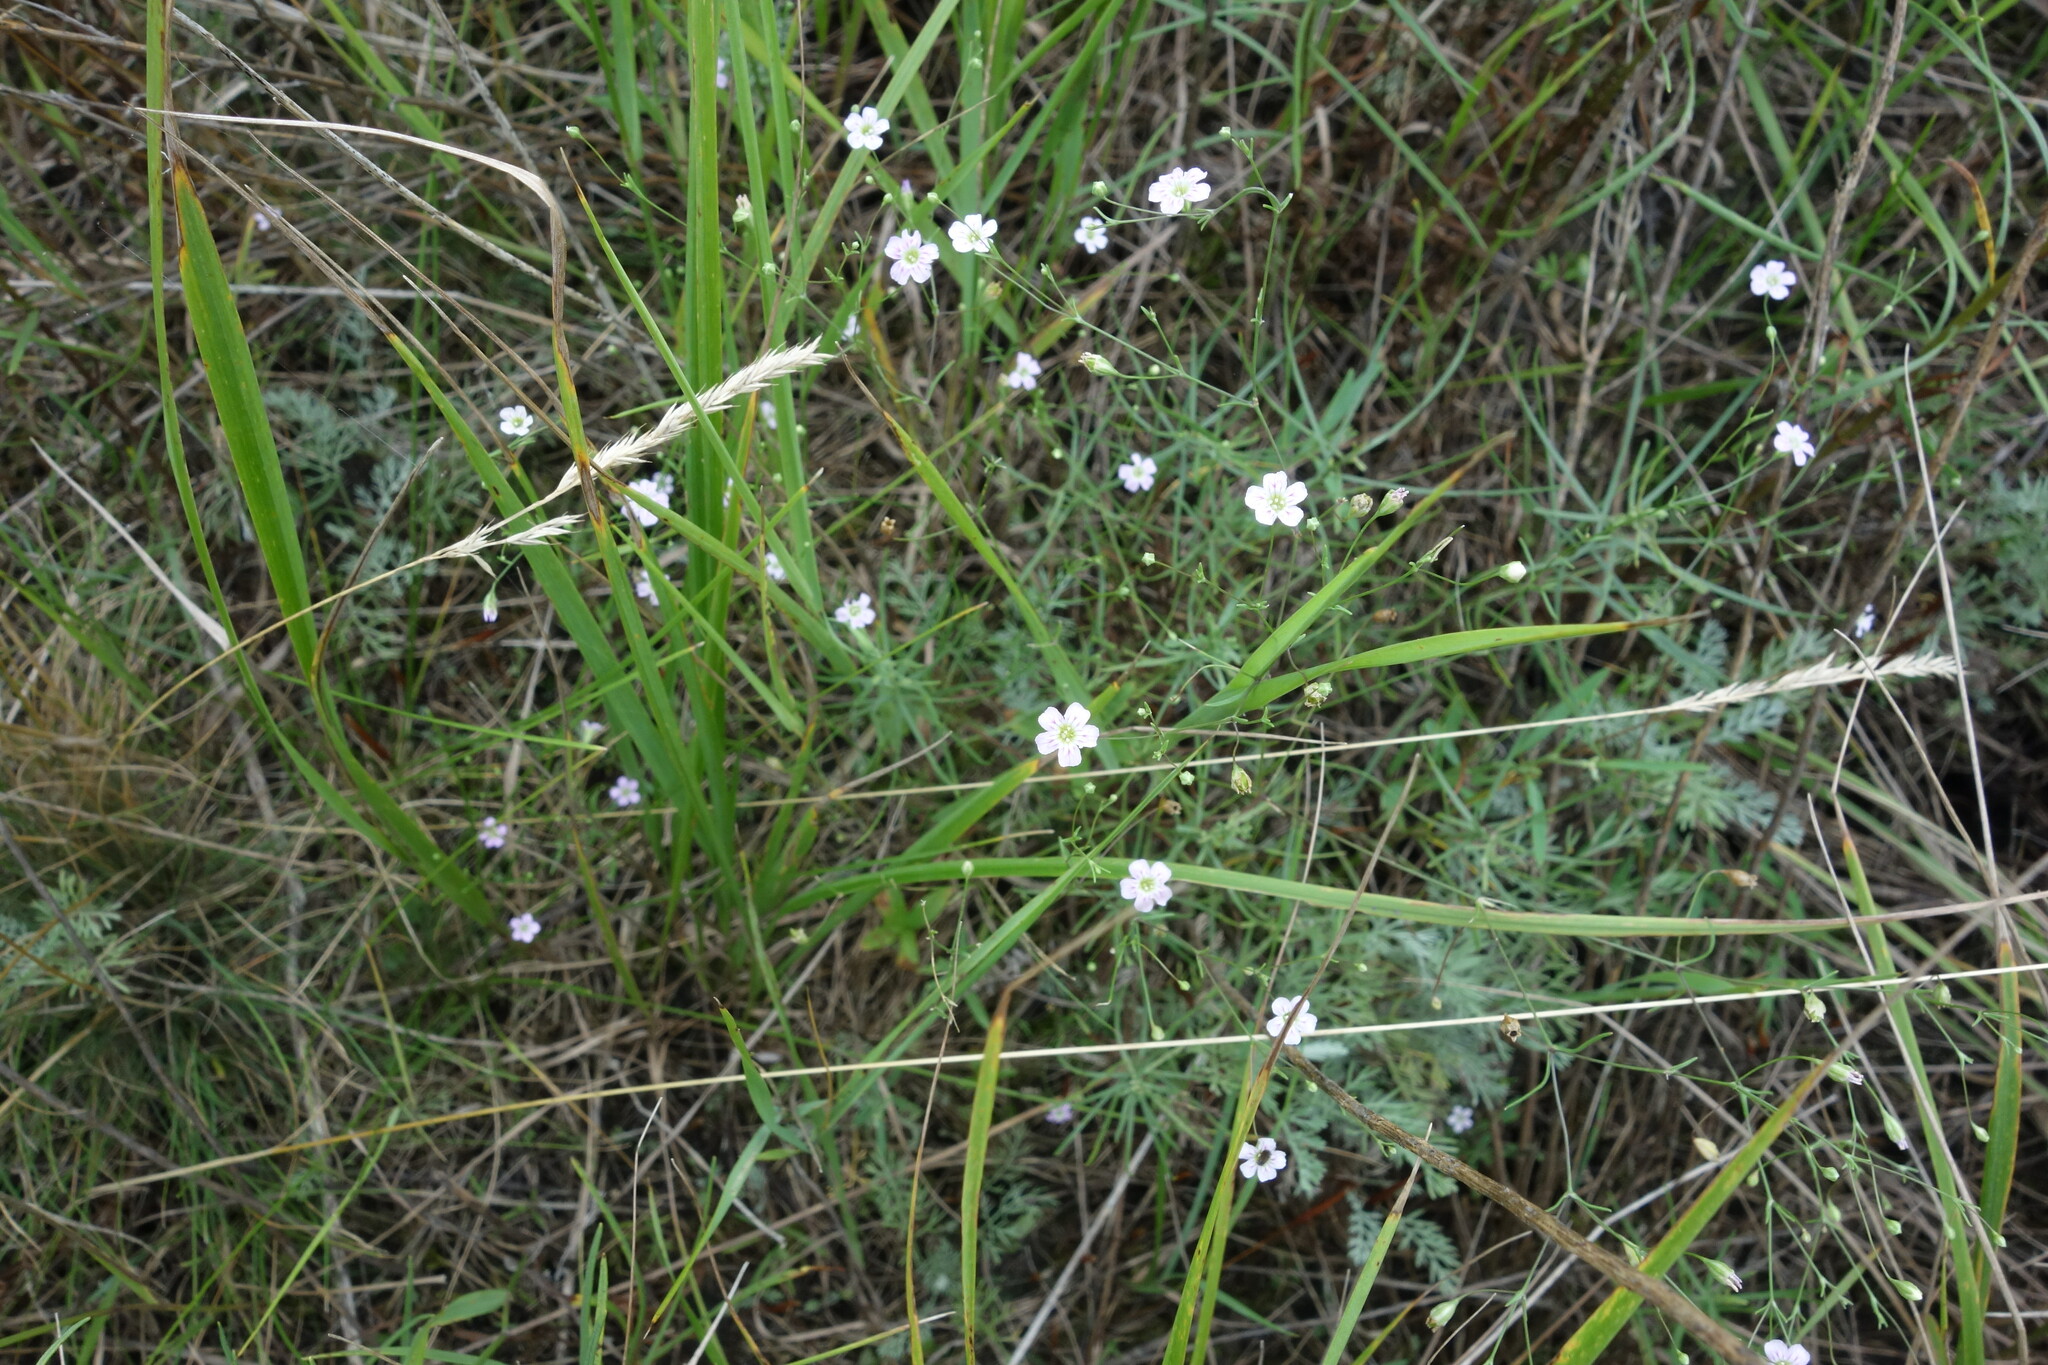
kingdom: Plantae
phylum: Tracheophyta
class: Magnoliopsida
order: Caryophyllales
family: Caryophyllaceae
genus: Psammophiliella
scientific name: Psammophiliella muralis
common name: Cushion baby's-breath
